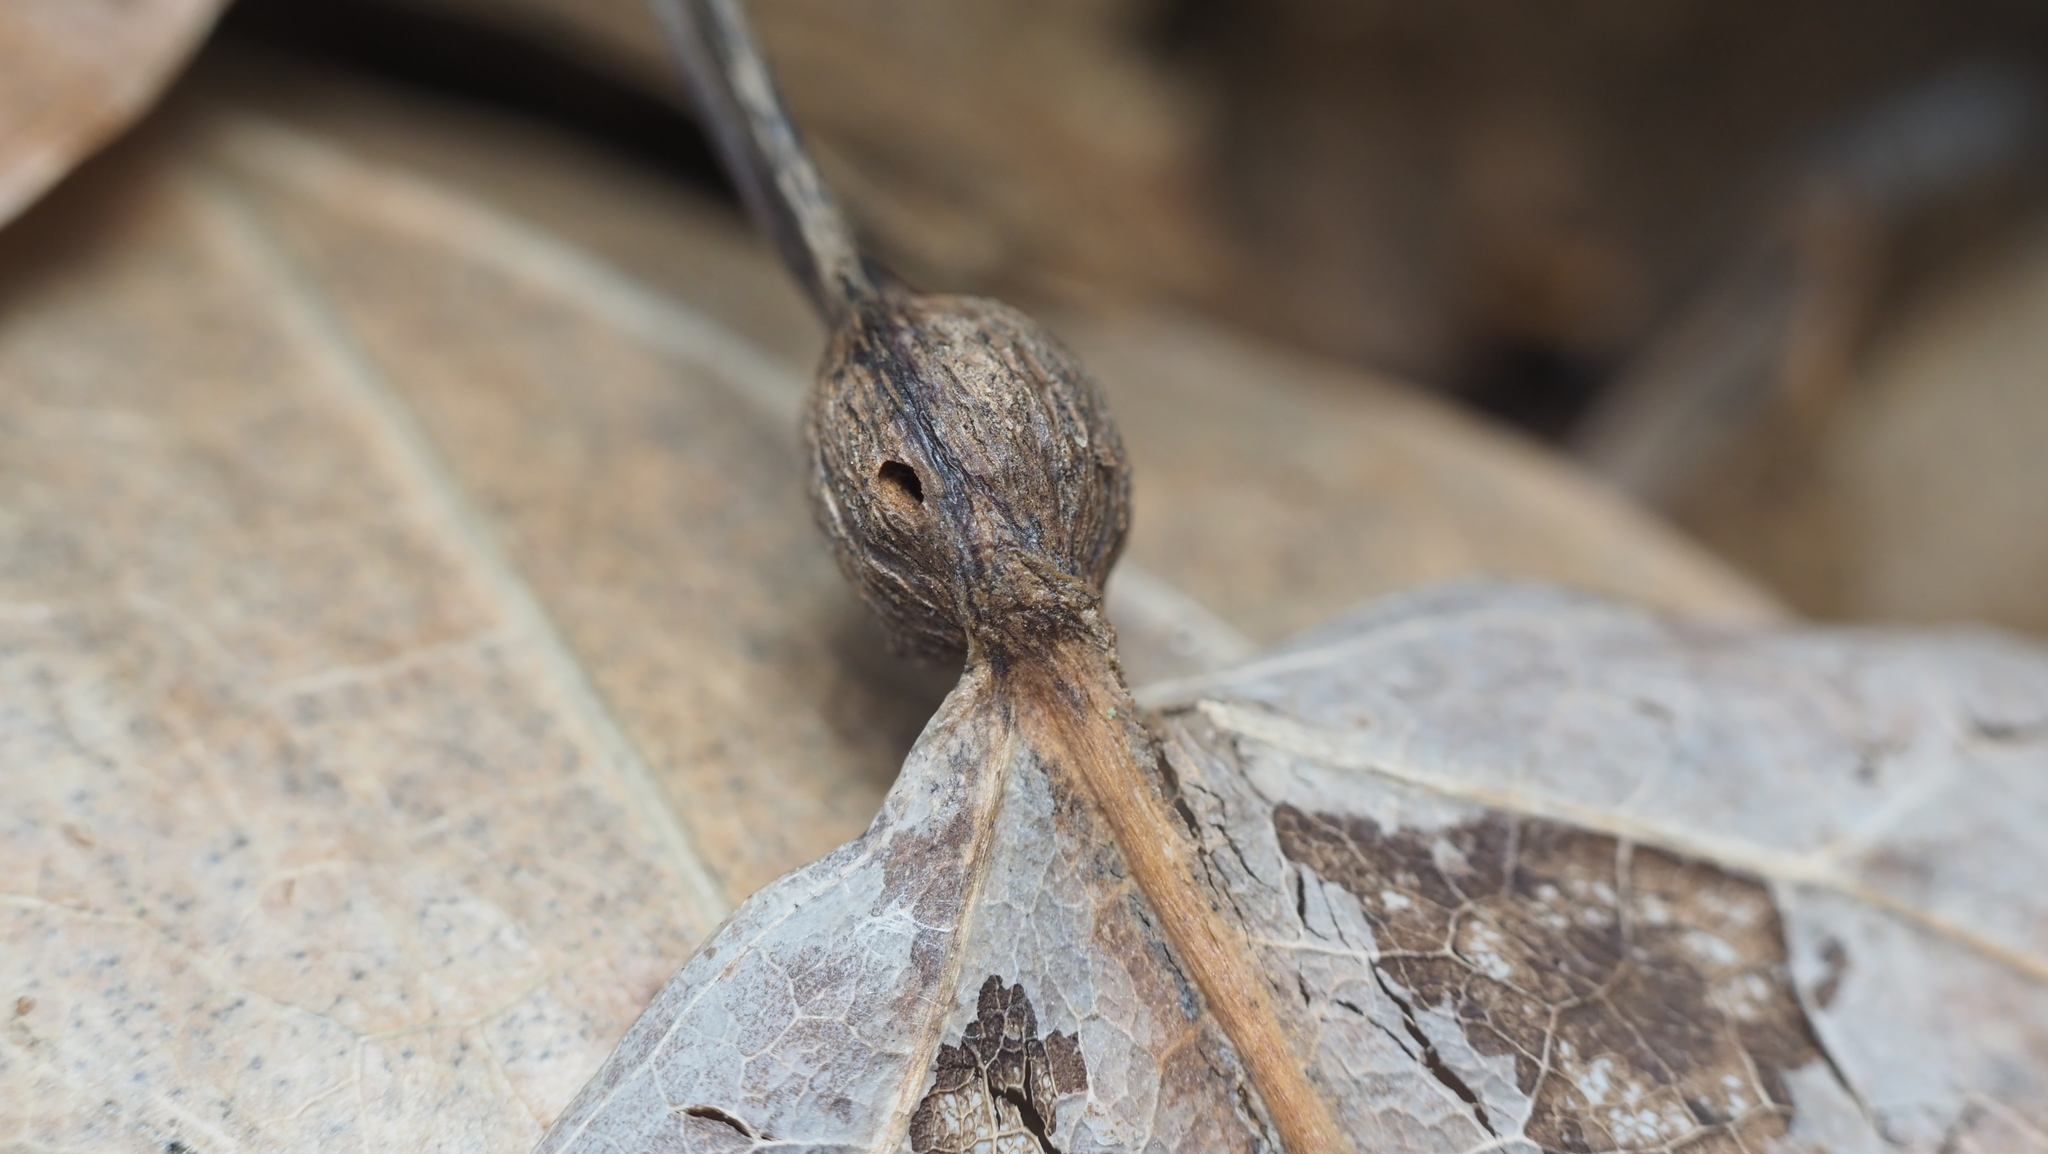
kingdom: Animalia
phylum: Arthropoda
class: Insecta
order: Lepidoptera
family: Nepticulidae
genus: Ectoedemia
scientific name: Ectoedemia populella
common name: Aspen petiole gall moth
